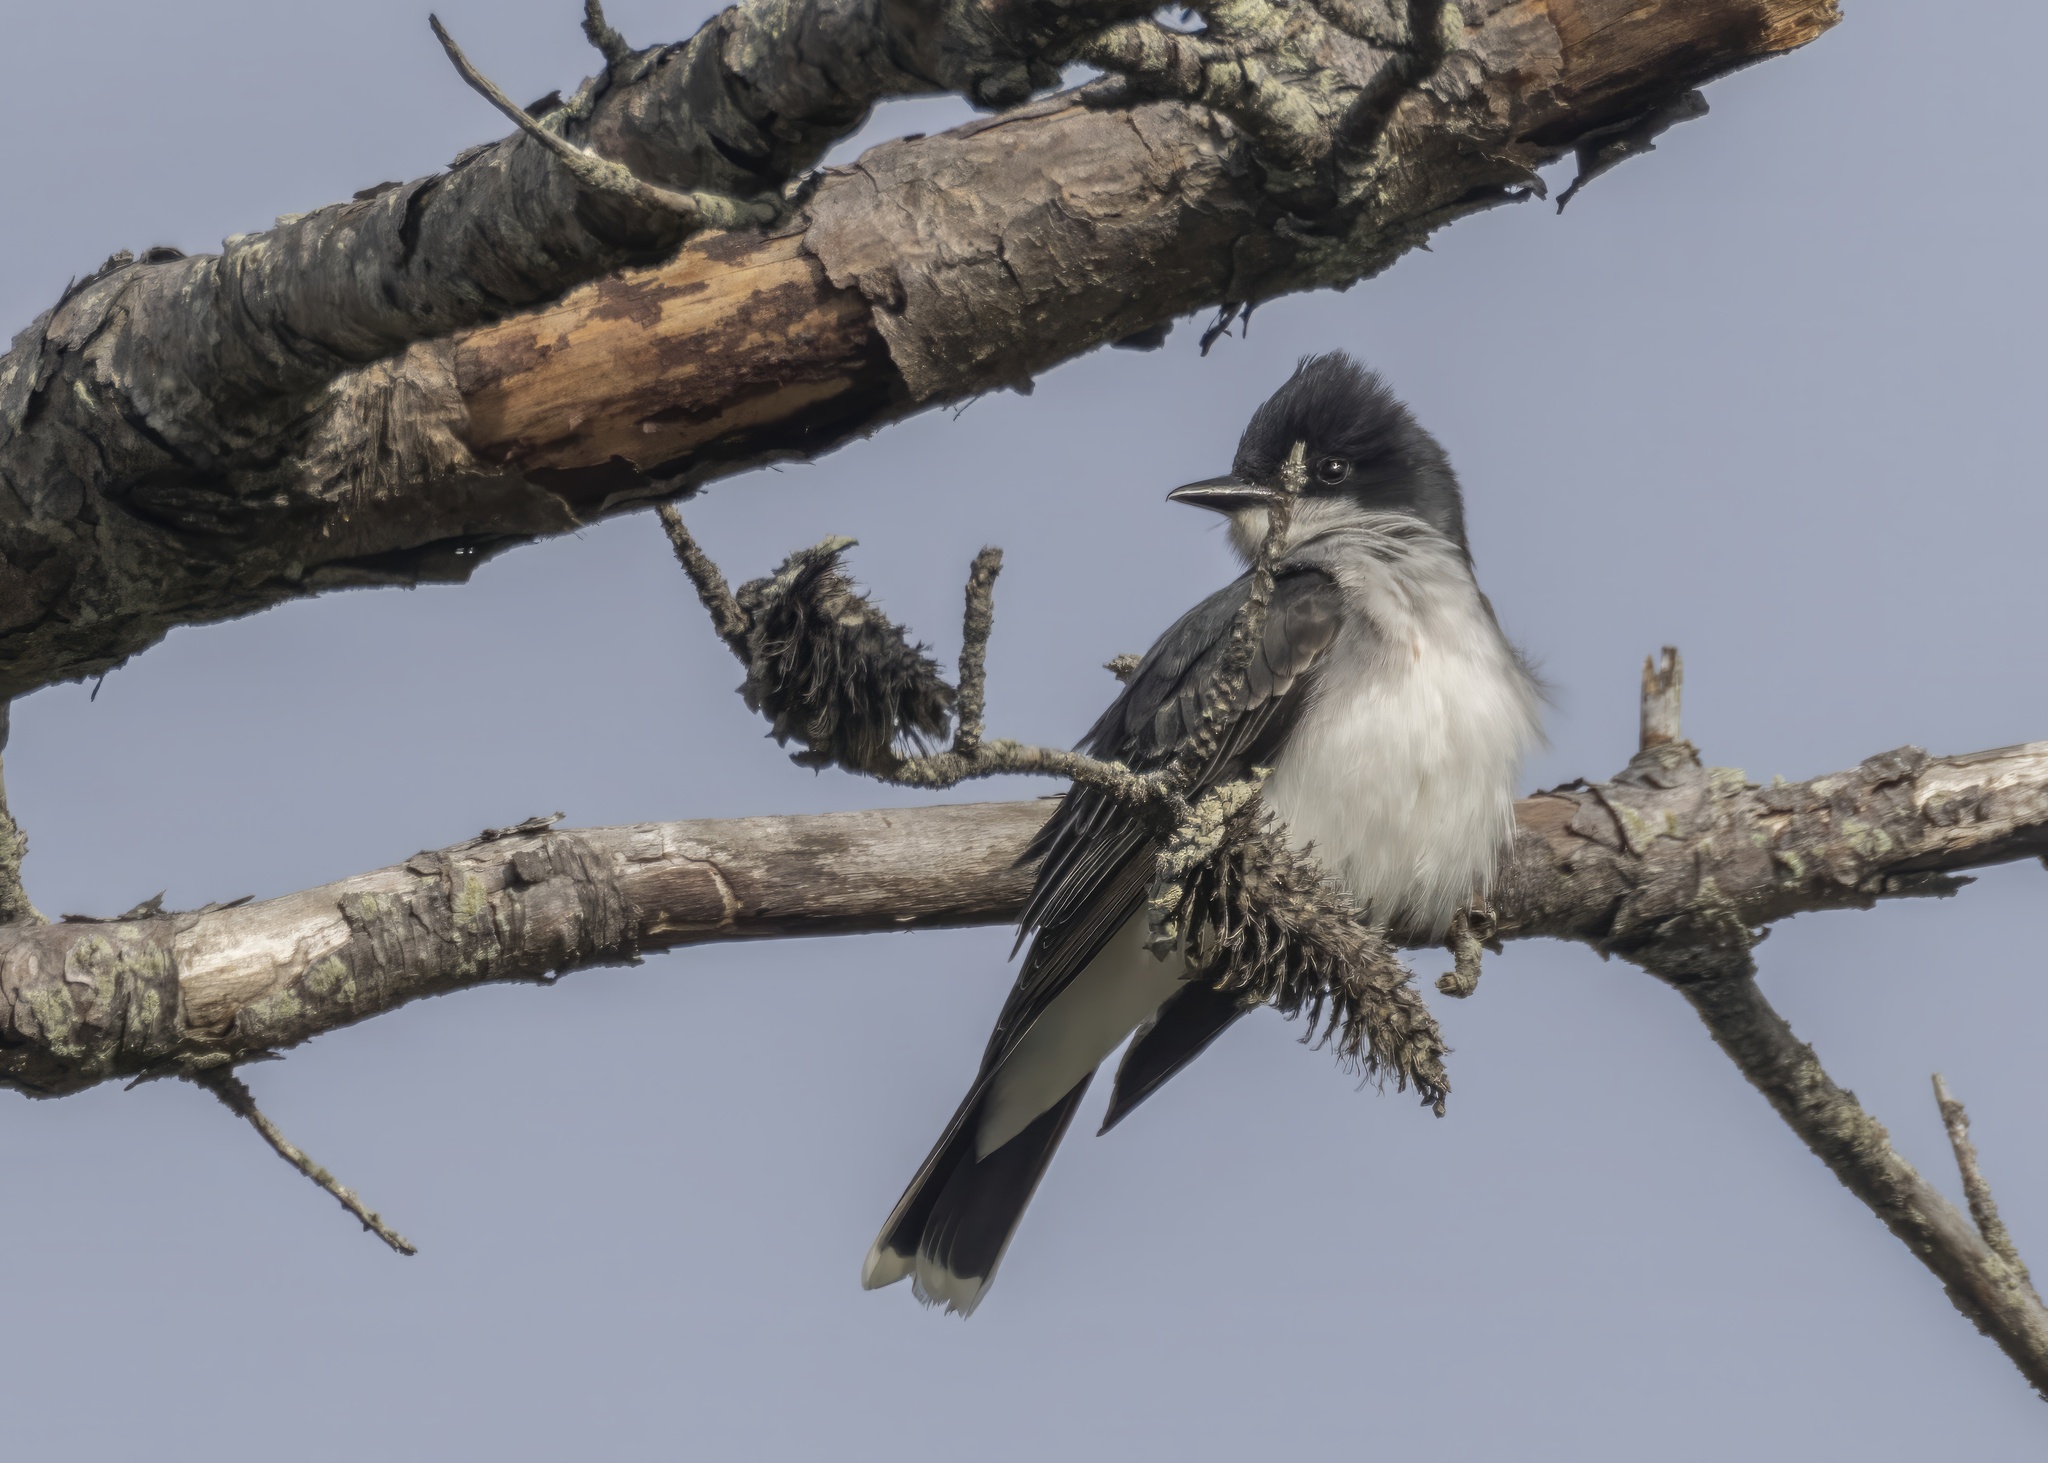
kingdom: Animalia
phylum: Chordata
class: Aves
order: Passeriformes
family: Tyrannidae
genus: Tyrannus
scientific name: Tyrannus tyrannus
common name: Eastern kingbird
